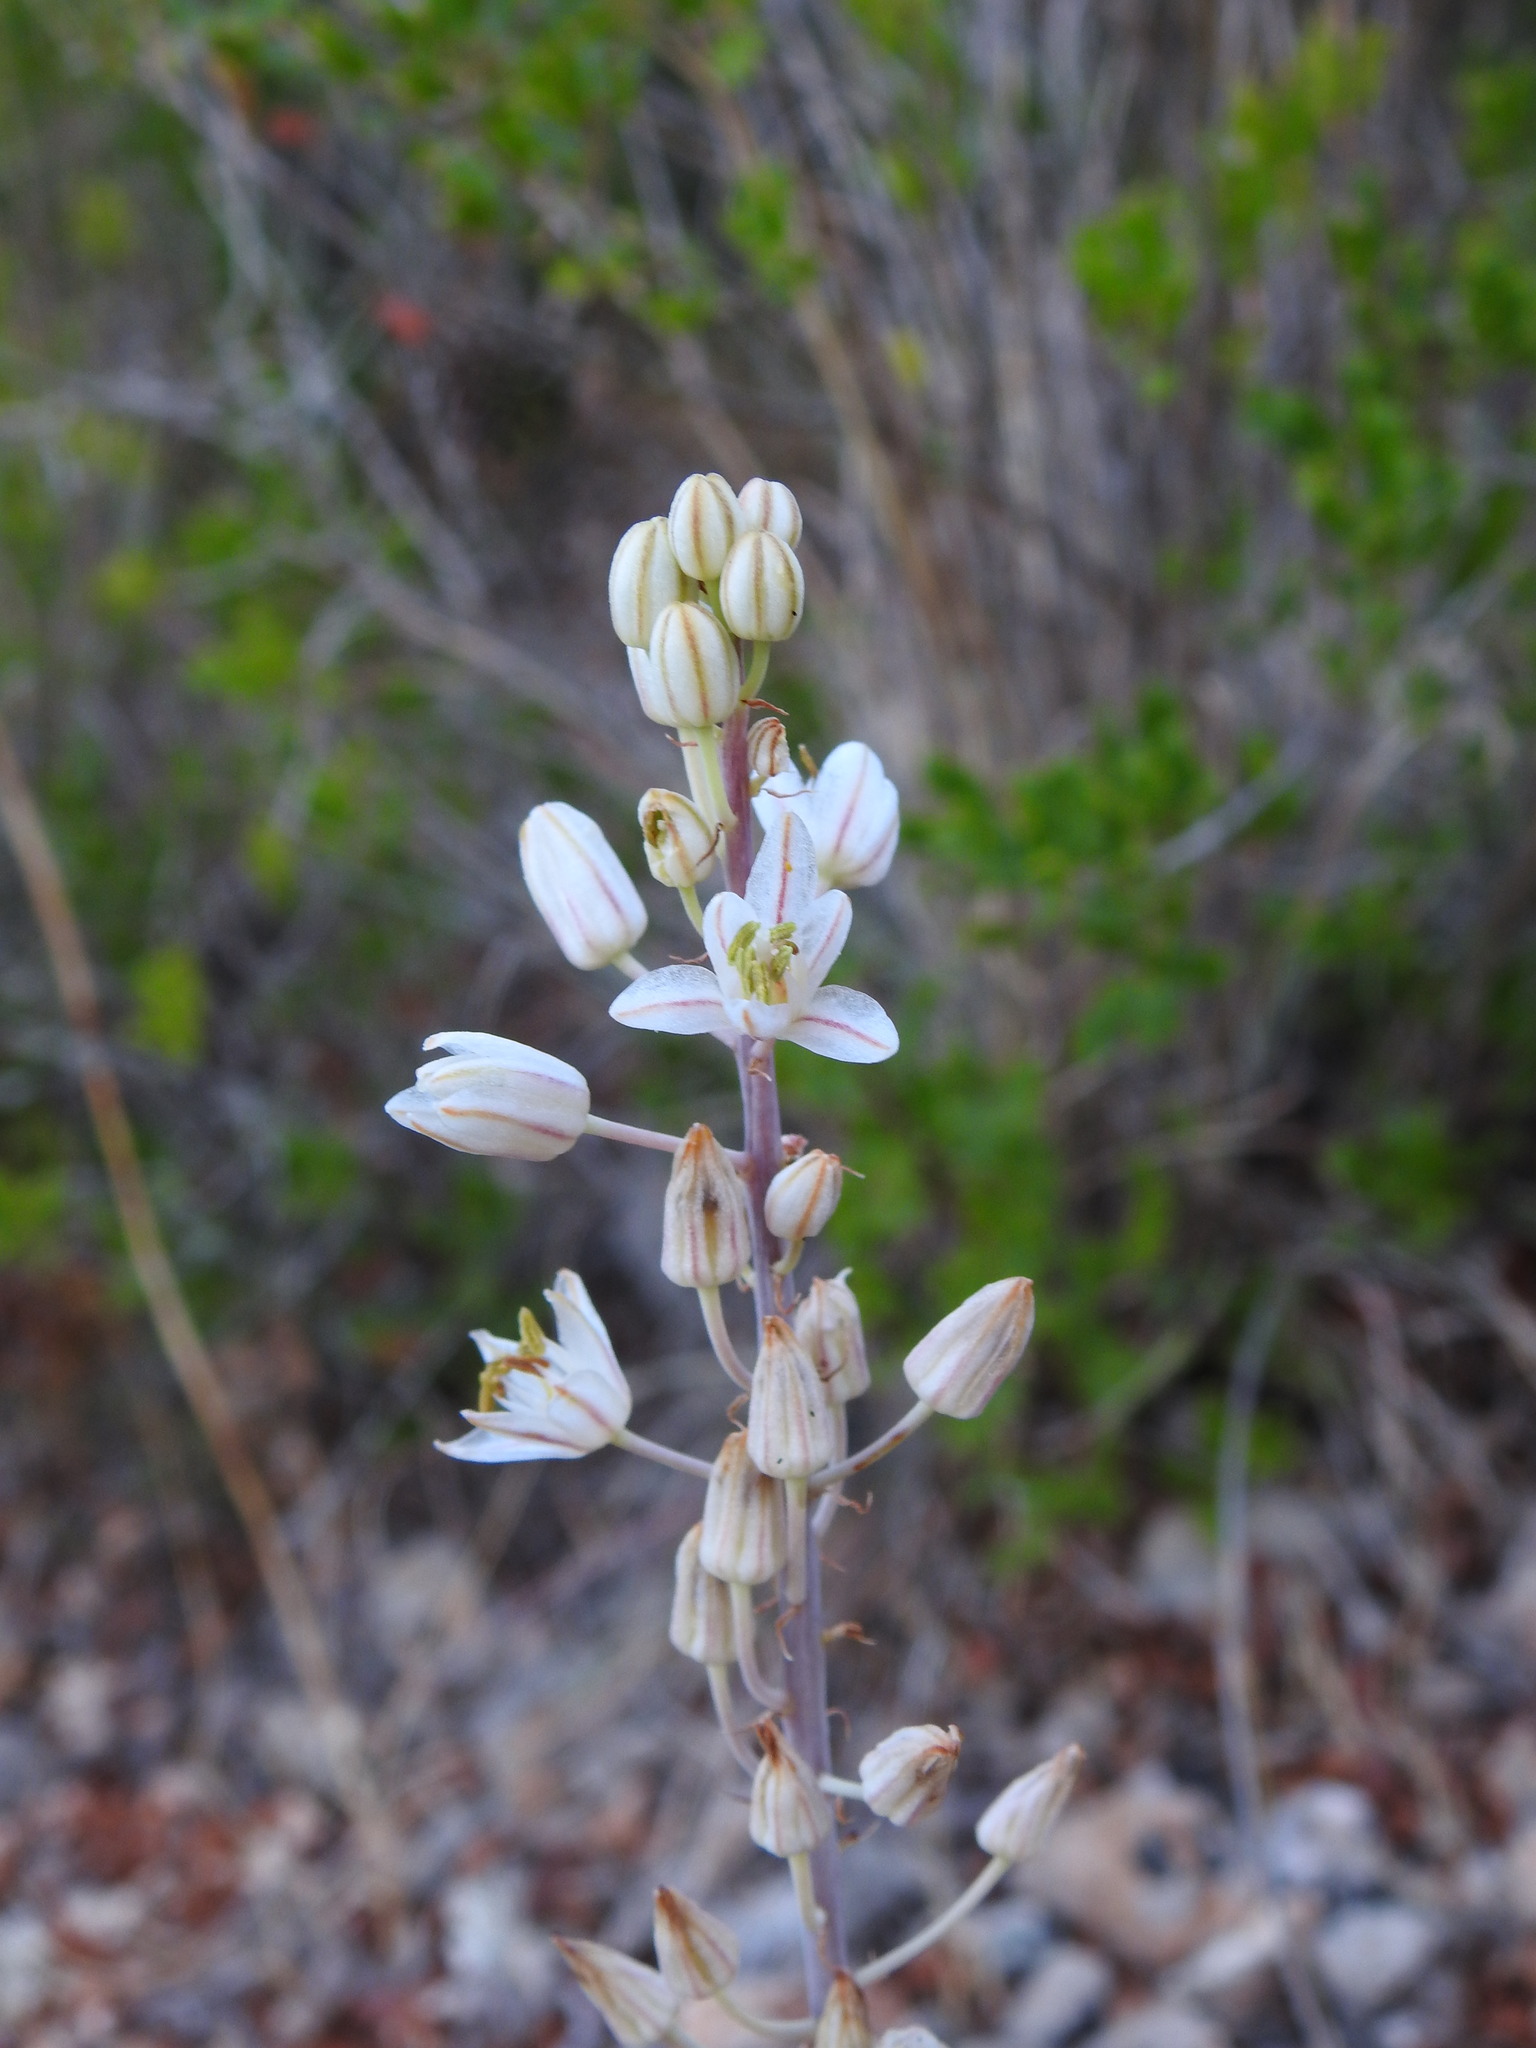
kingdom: Plantae
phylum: Tracheophyta
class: Liliopsida
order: Asparagales
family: Asparagaceae
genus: Drimia
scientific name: Drimia maritima
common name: Maritime squill
